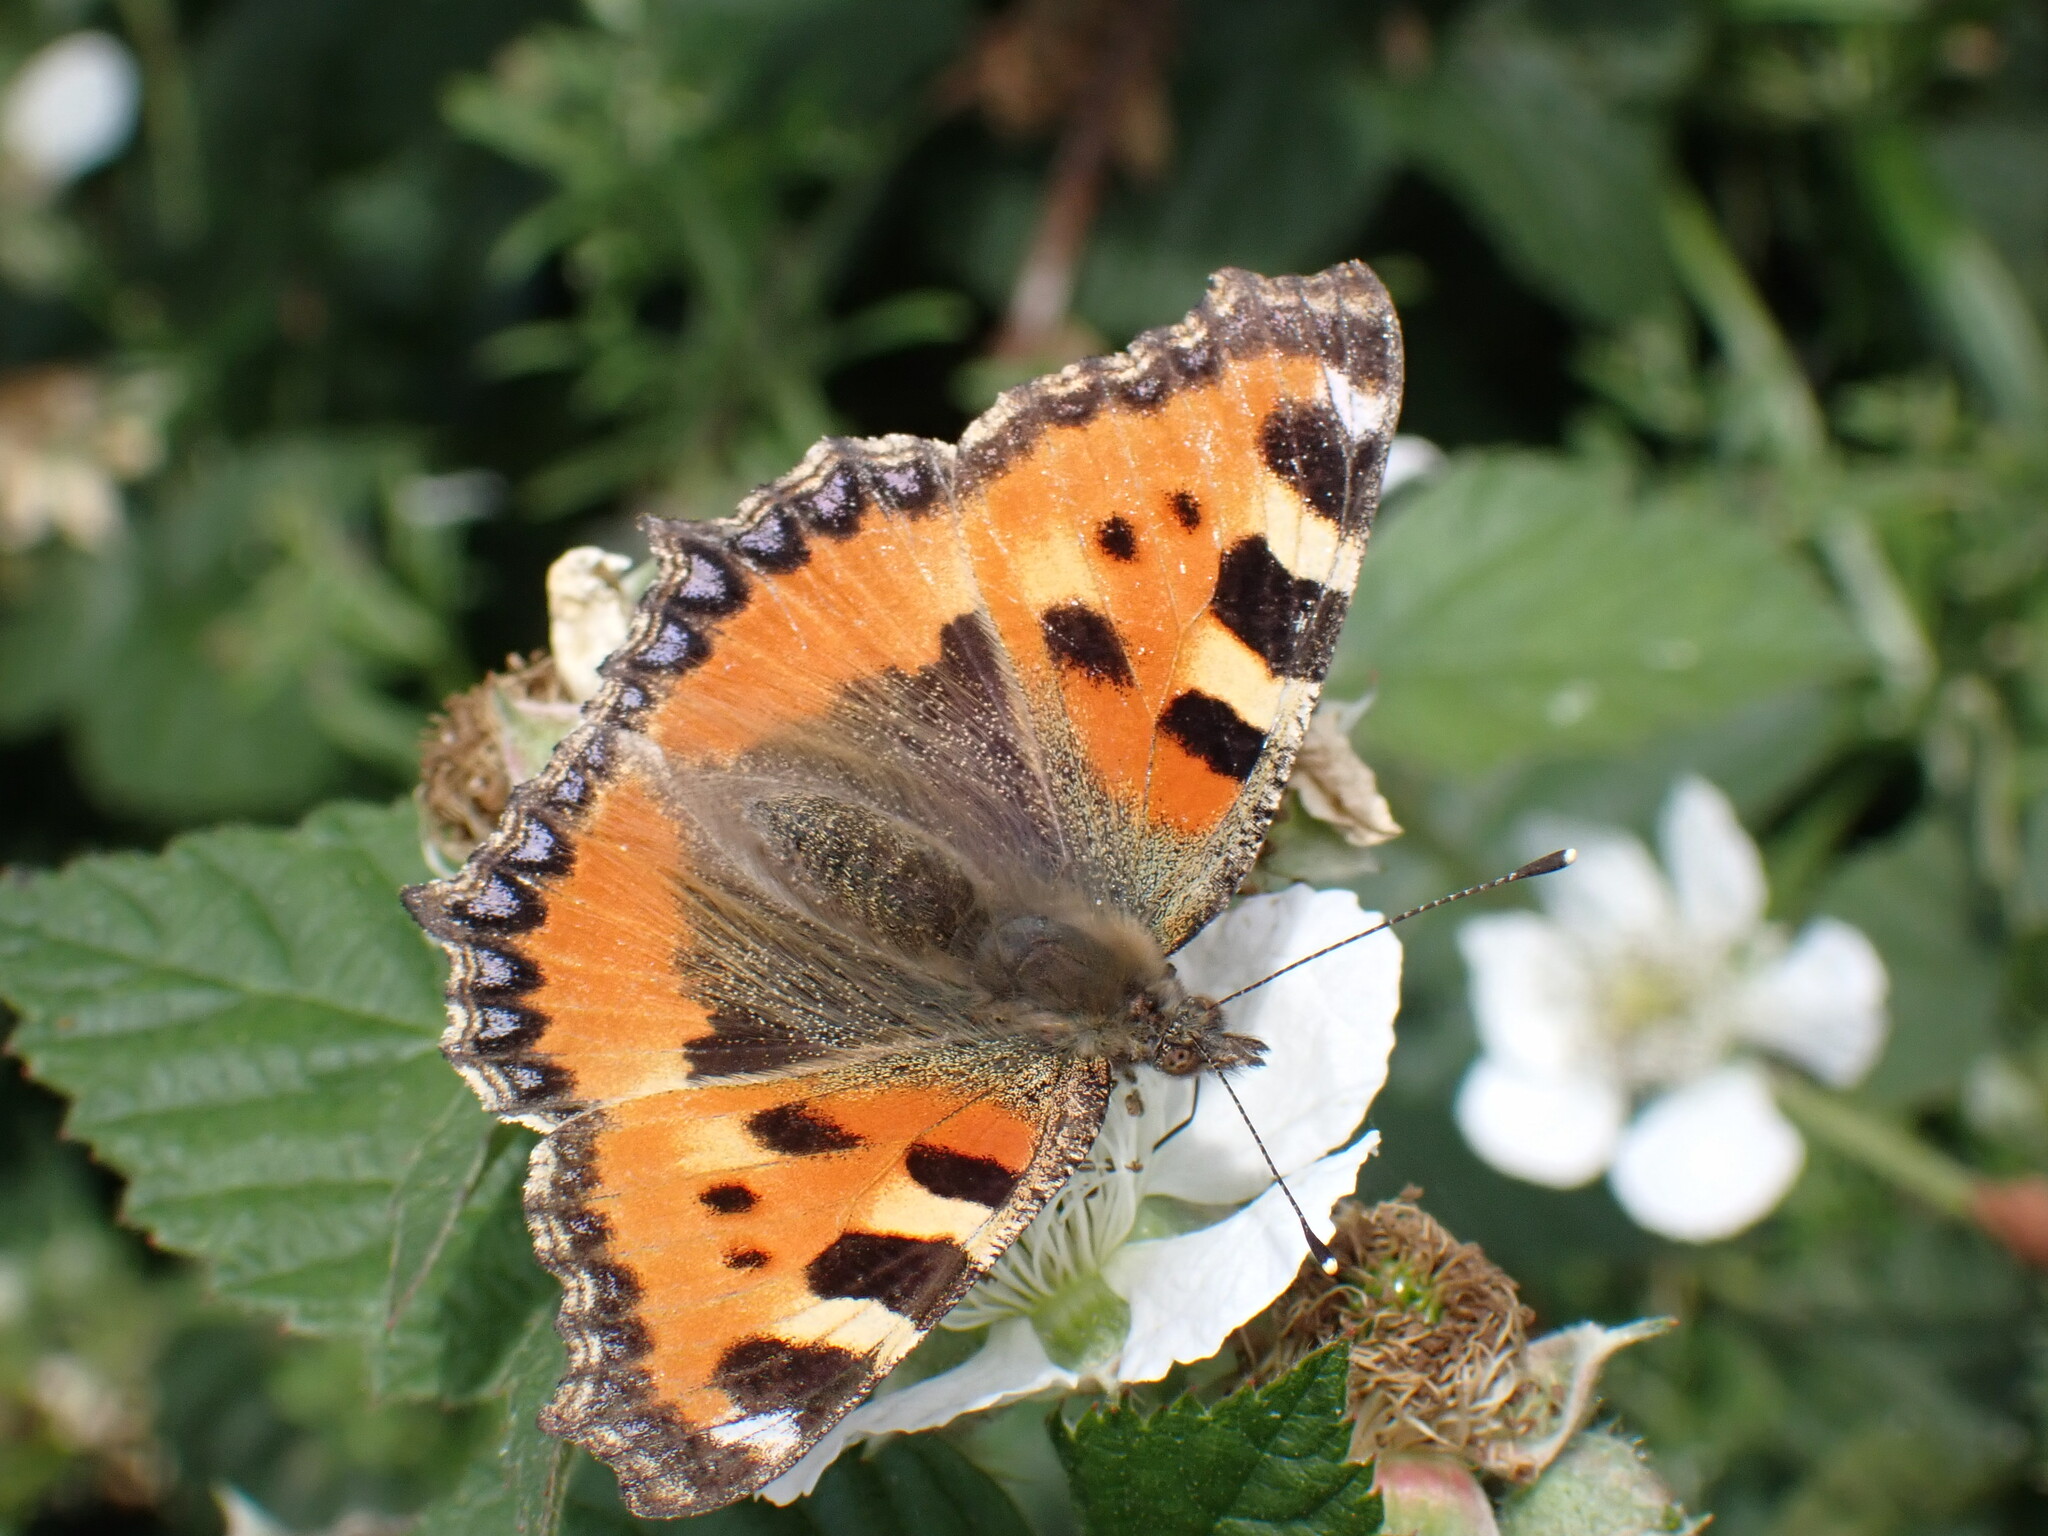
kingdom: Animalia
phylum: Arthropoda
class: Insecta
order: Lepidoptera
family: Nymphalidae
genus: Aglais
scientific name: Aglais urticae
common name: Small tortoiseshell
